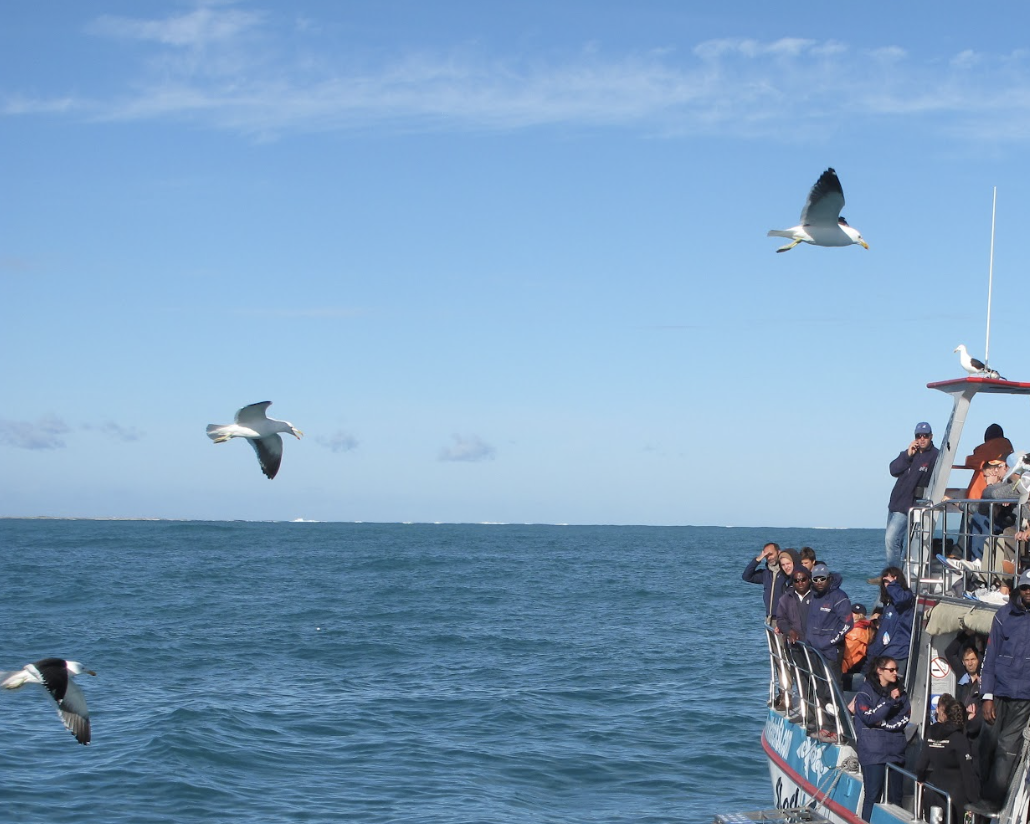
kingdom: Animalia
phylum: Chordata
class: Aves
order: Charadriiformes
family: Laridae
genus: Larus
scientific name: Larus dominicanus
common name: Kelp gull
